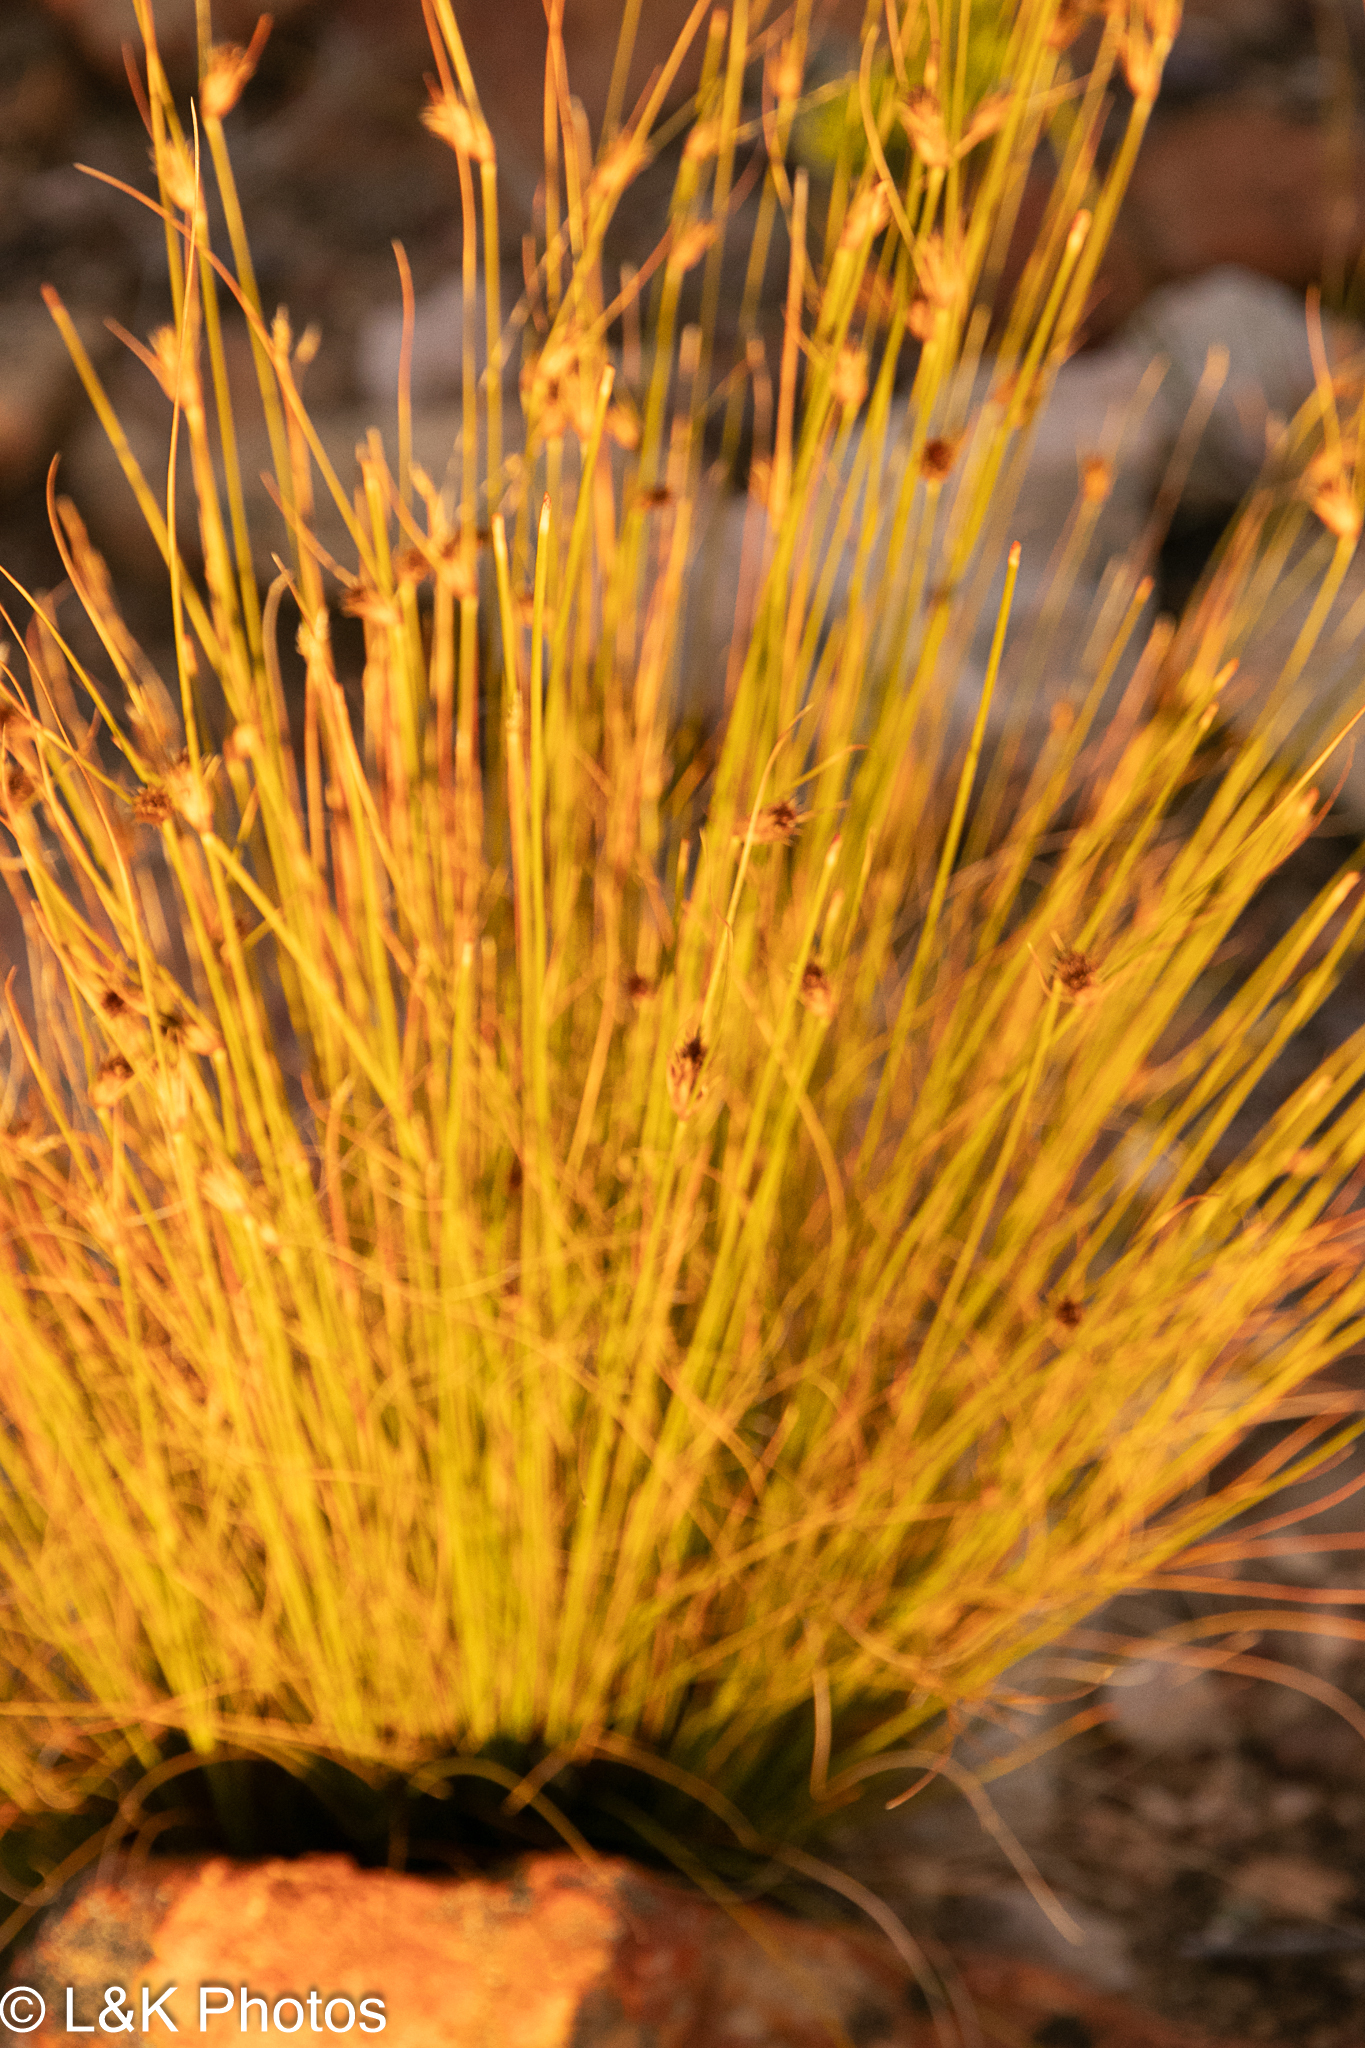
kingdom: Plantae
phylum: Tracheophyta
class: Liliopsida
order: Poales
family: Cyperaceae
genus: Ficinia
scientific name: Ficinia nigrescens
